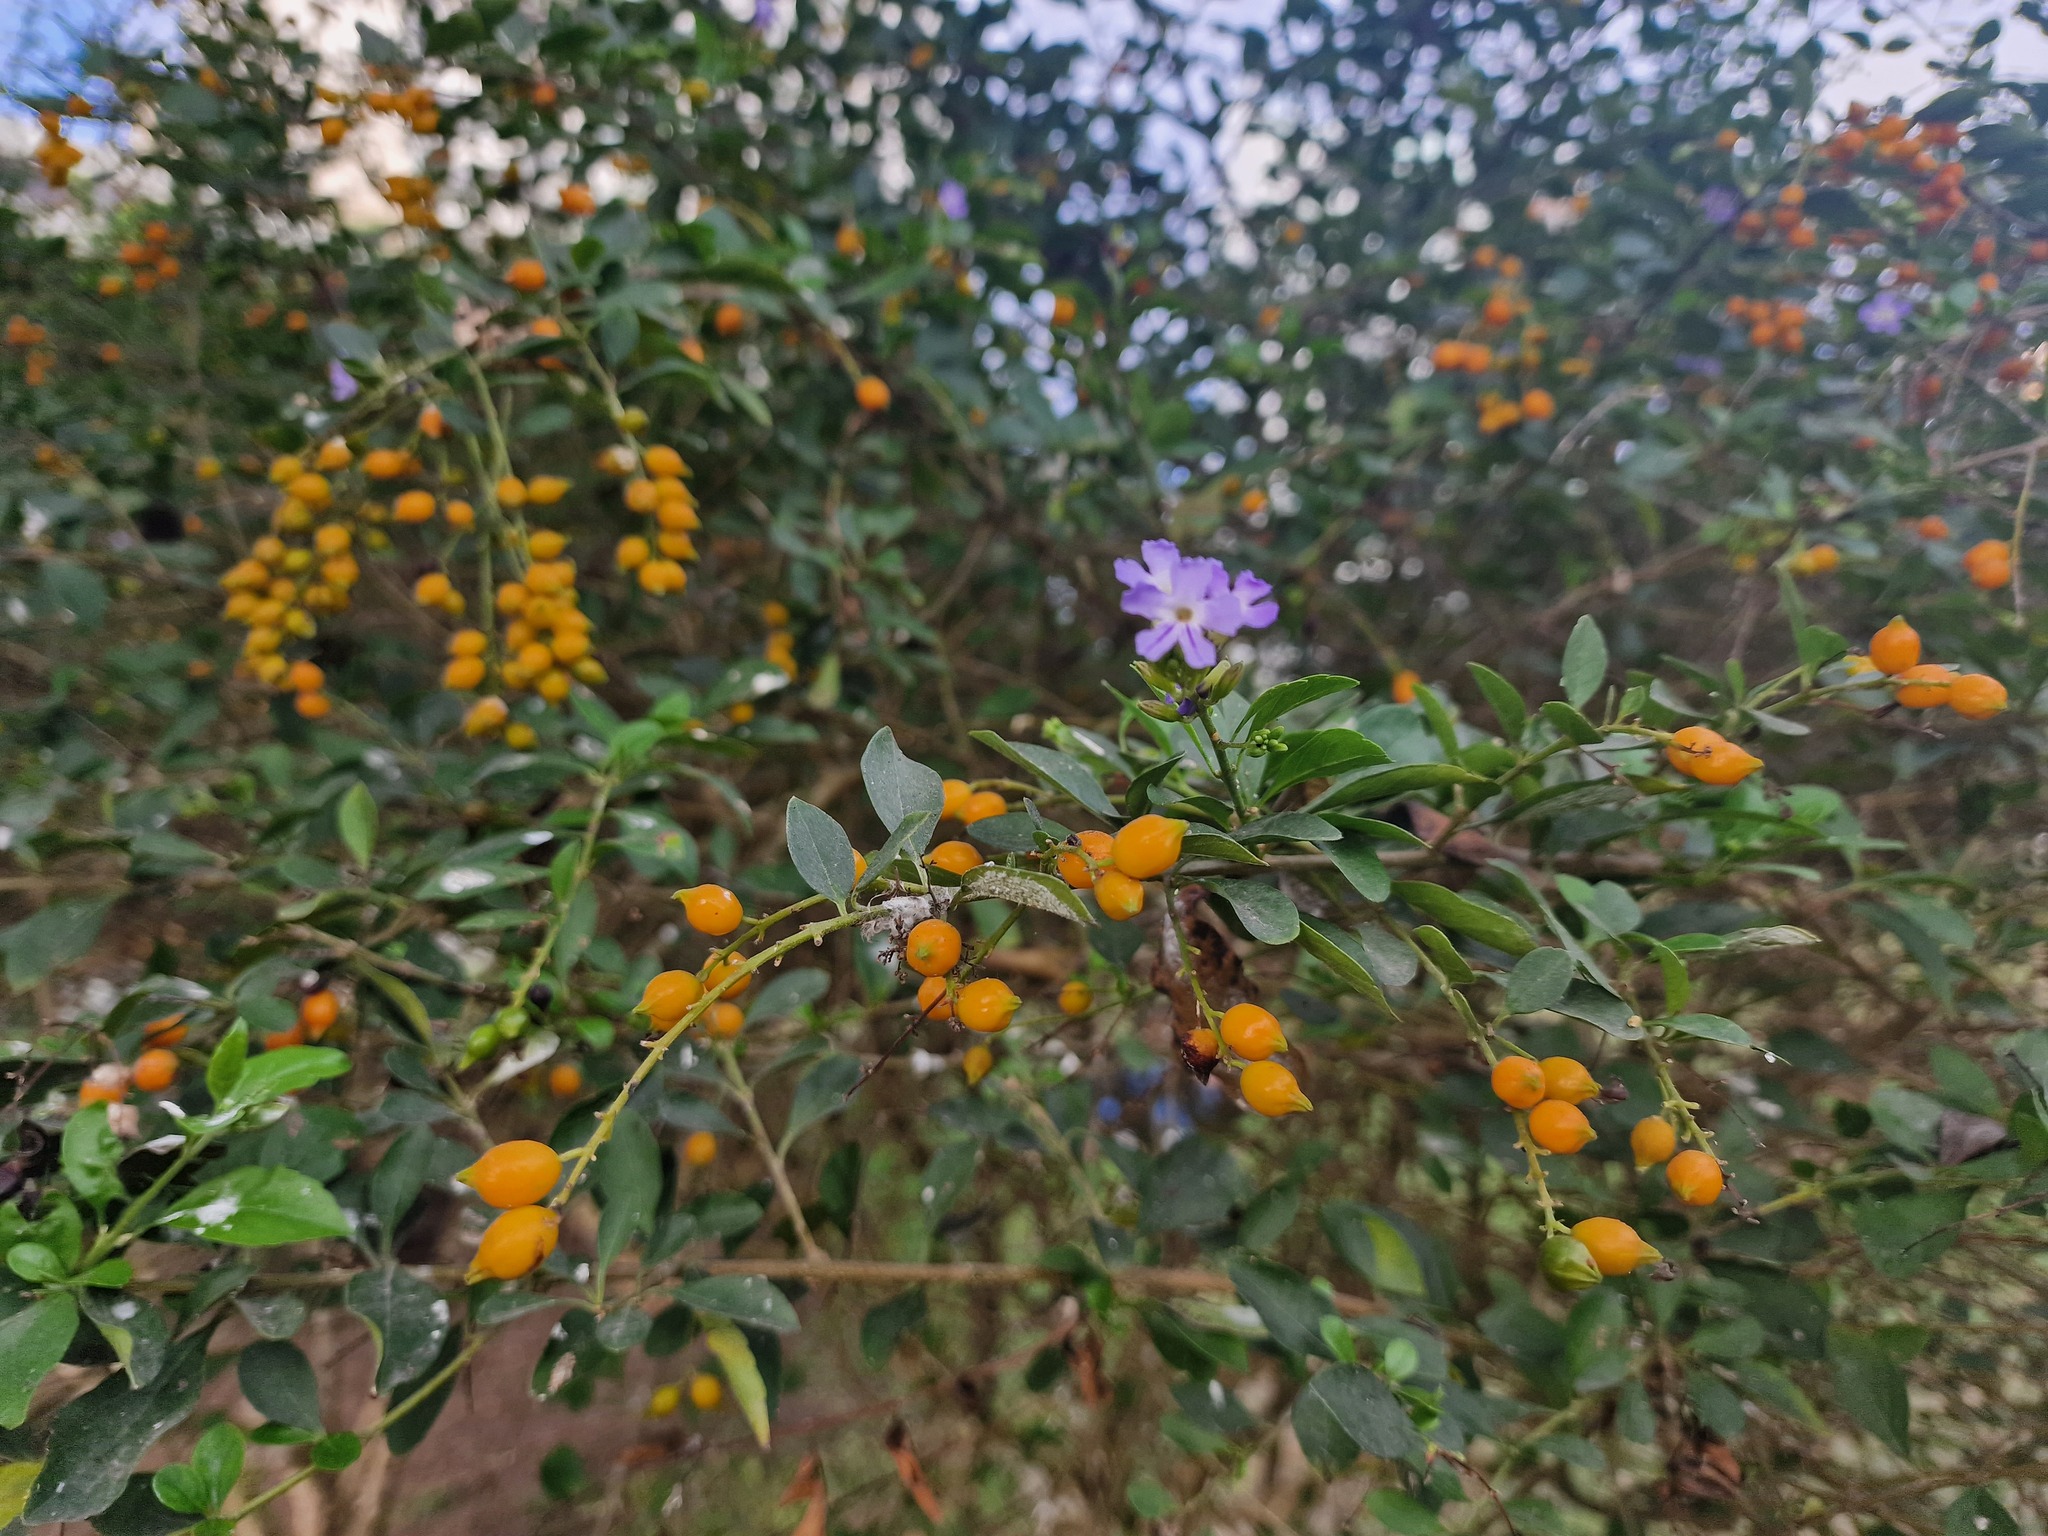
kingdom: Plantae
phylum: Tracheophyta
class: Magnoliopsida
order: Lamiales
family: Verbenaceae
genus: Duranta
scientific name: Duranta erecta
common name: Golden dewdrops
